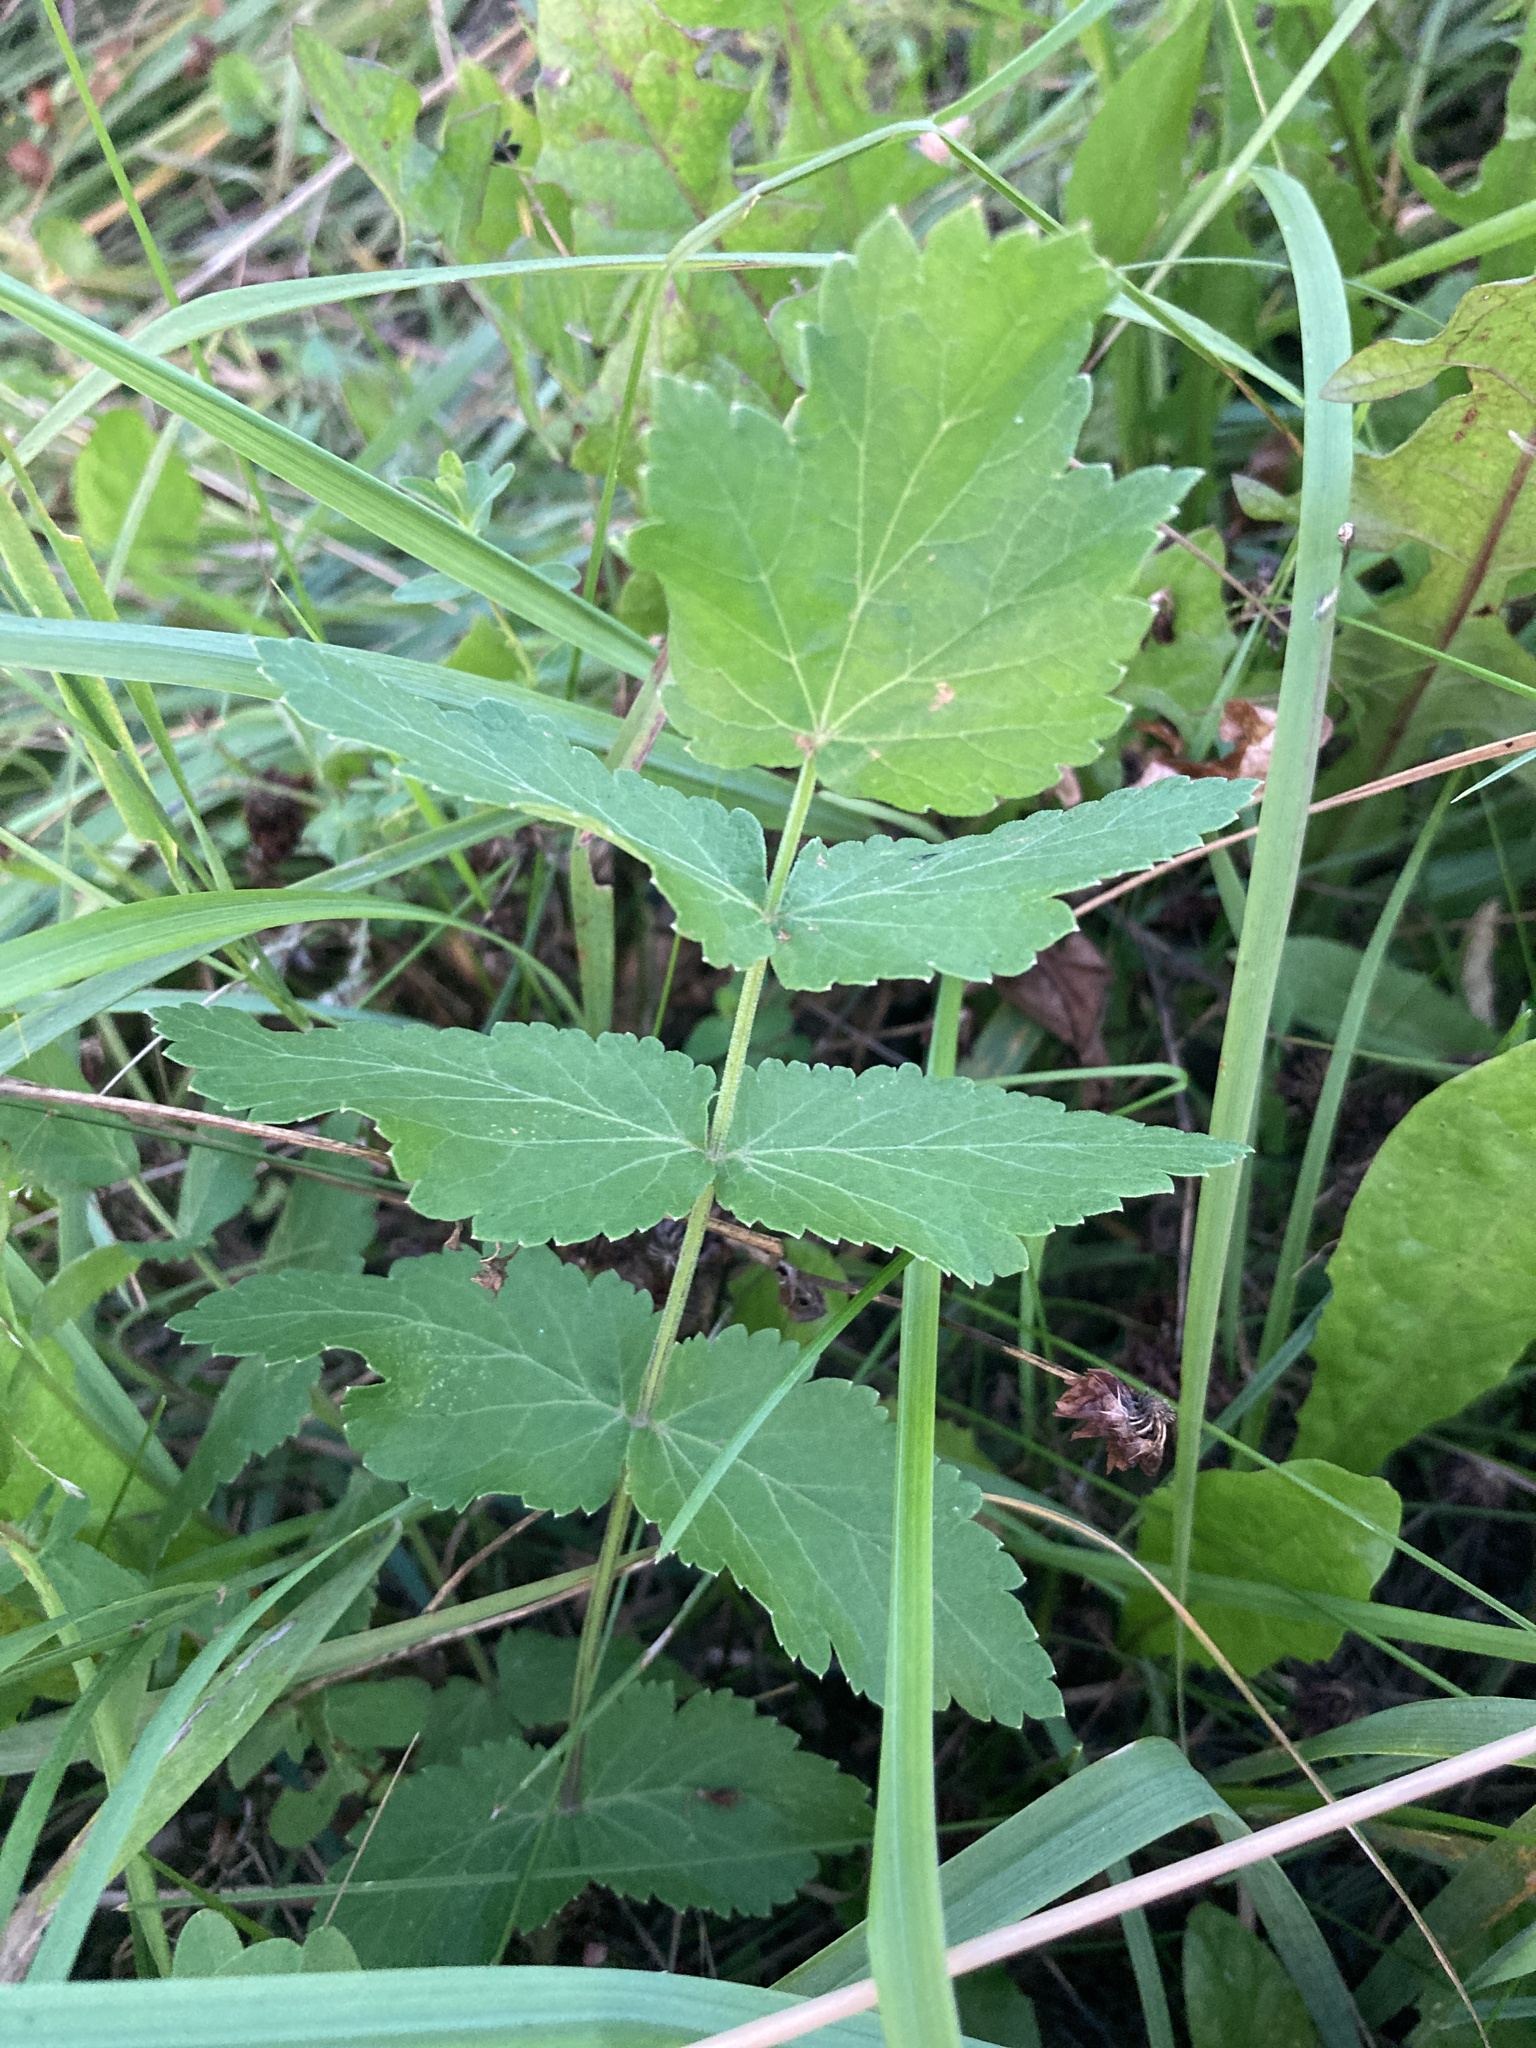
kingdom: Plantae
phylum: Tracheophyta
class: Magnoliopsida
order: Apiales
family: Apiaceae
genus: Pastinaca
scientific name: Pastinaca sativa
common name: Wild parsnip
